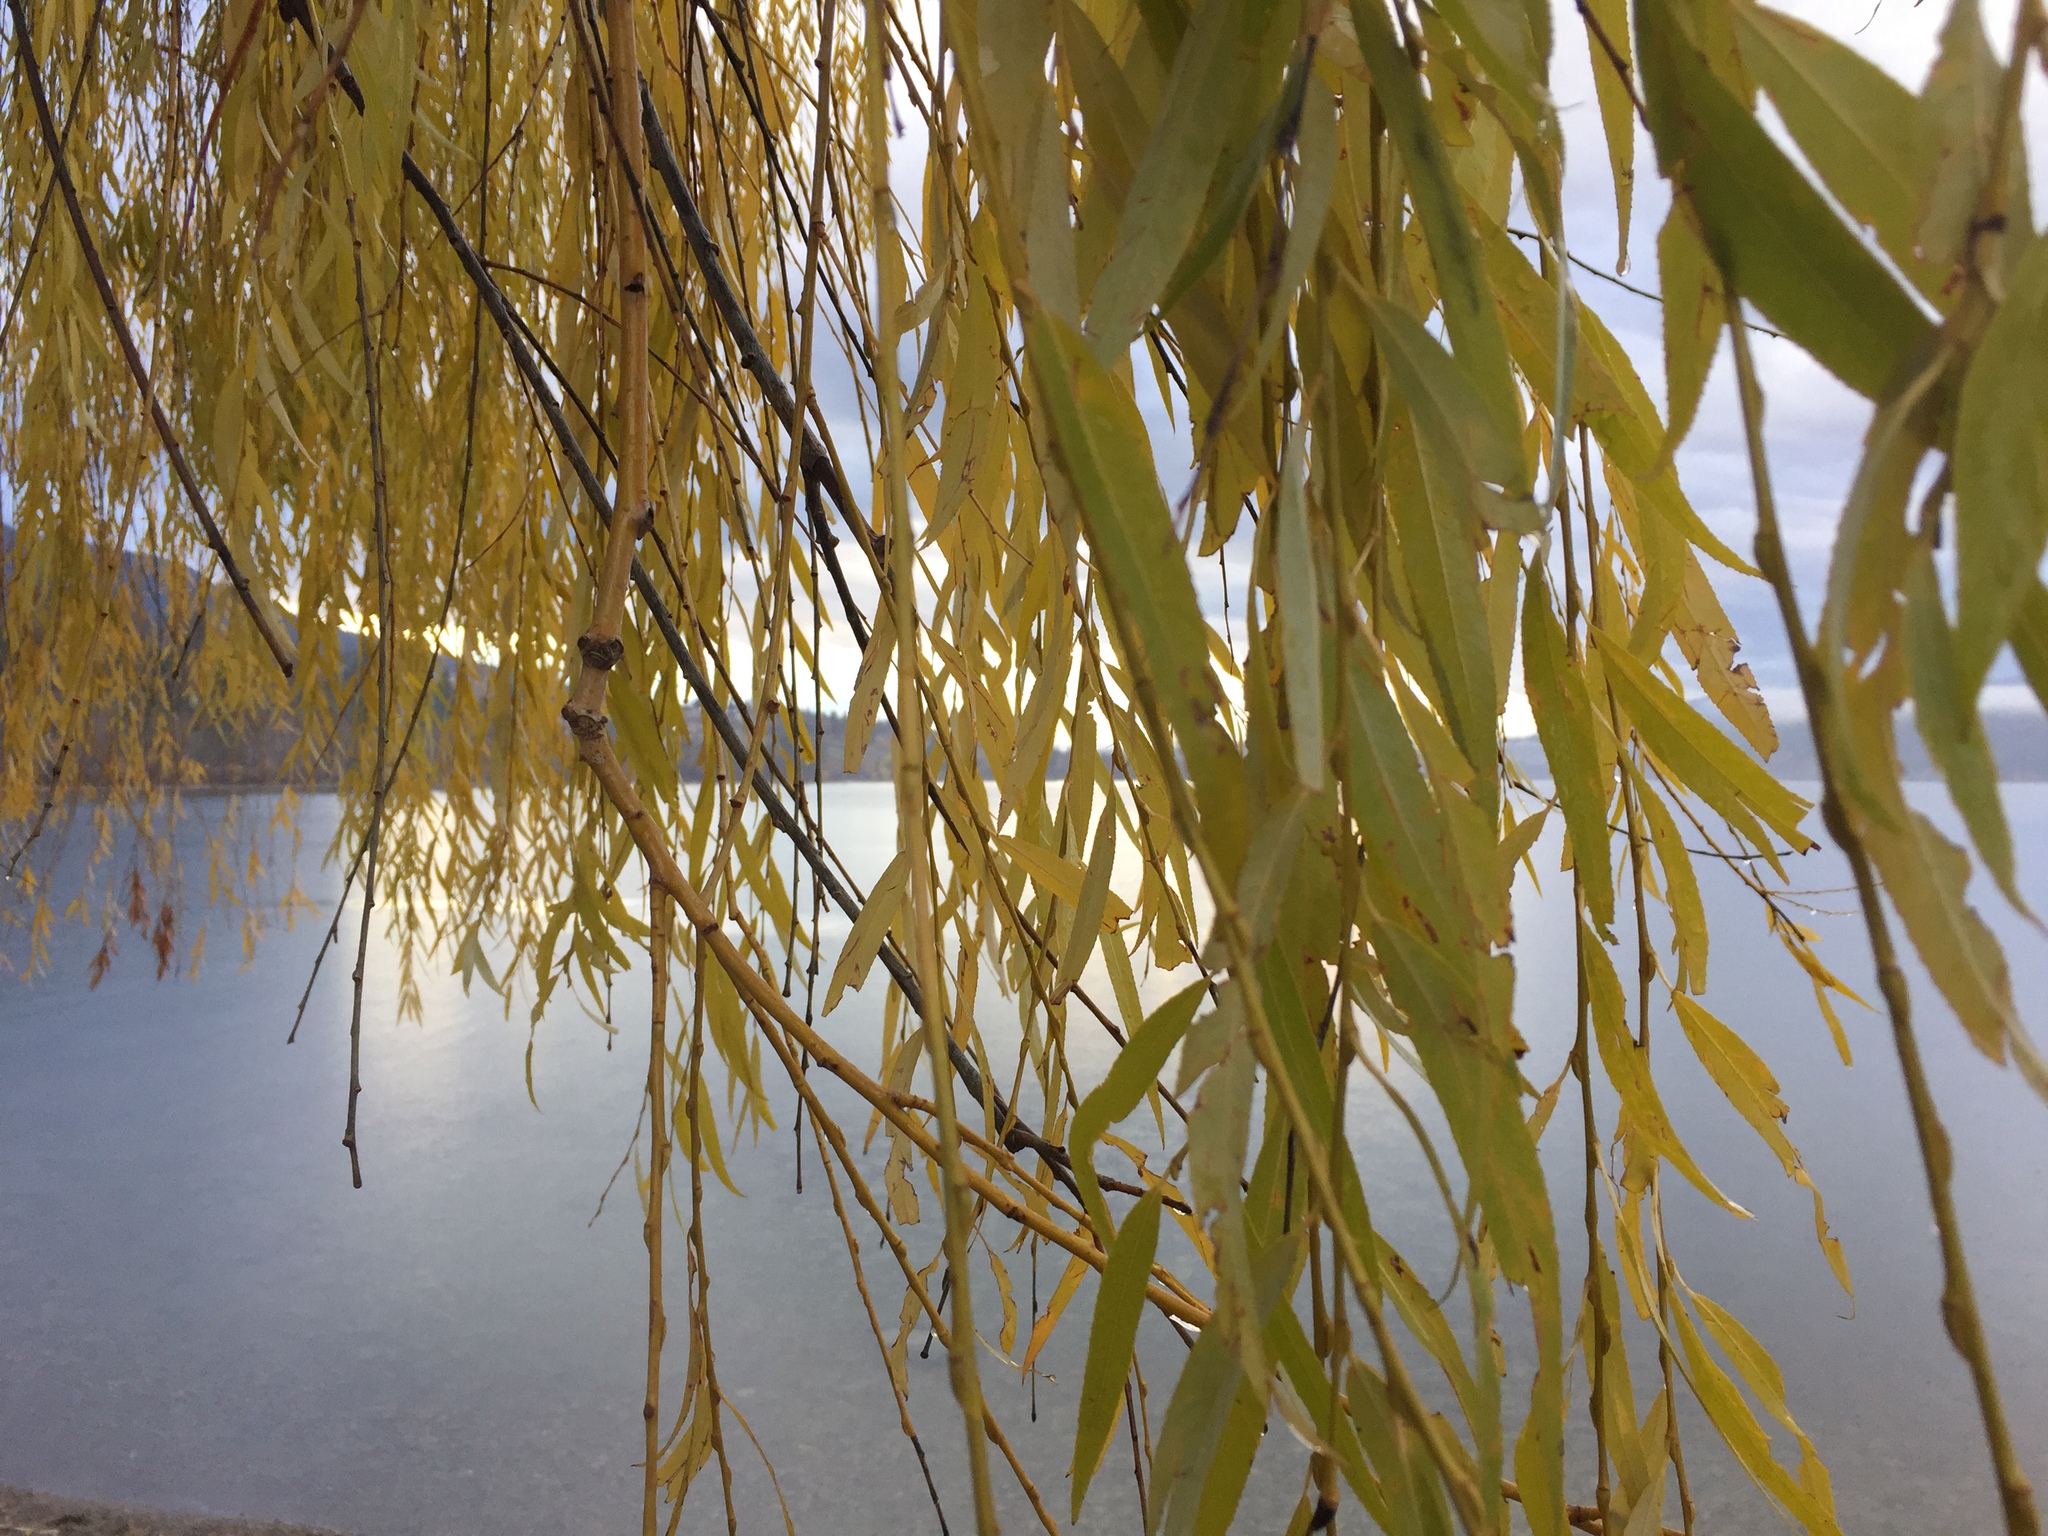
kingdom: Plantae
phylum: Tracheophyta
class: Magnoliopsida
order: Malpighiales
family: Salicaceae
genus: Salix
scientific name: Salix pendulina
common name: Wisconsin weeping willow
